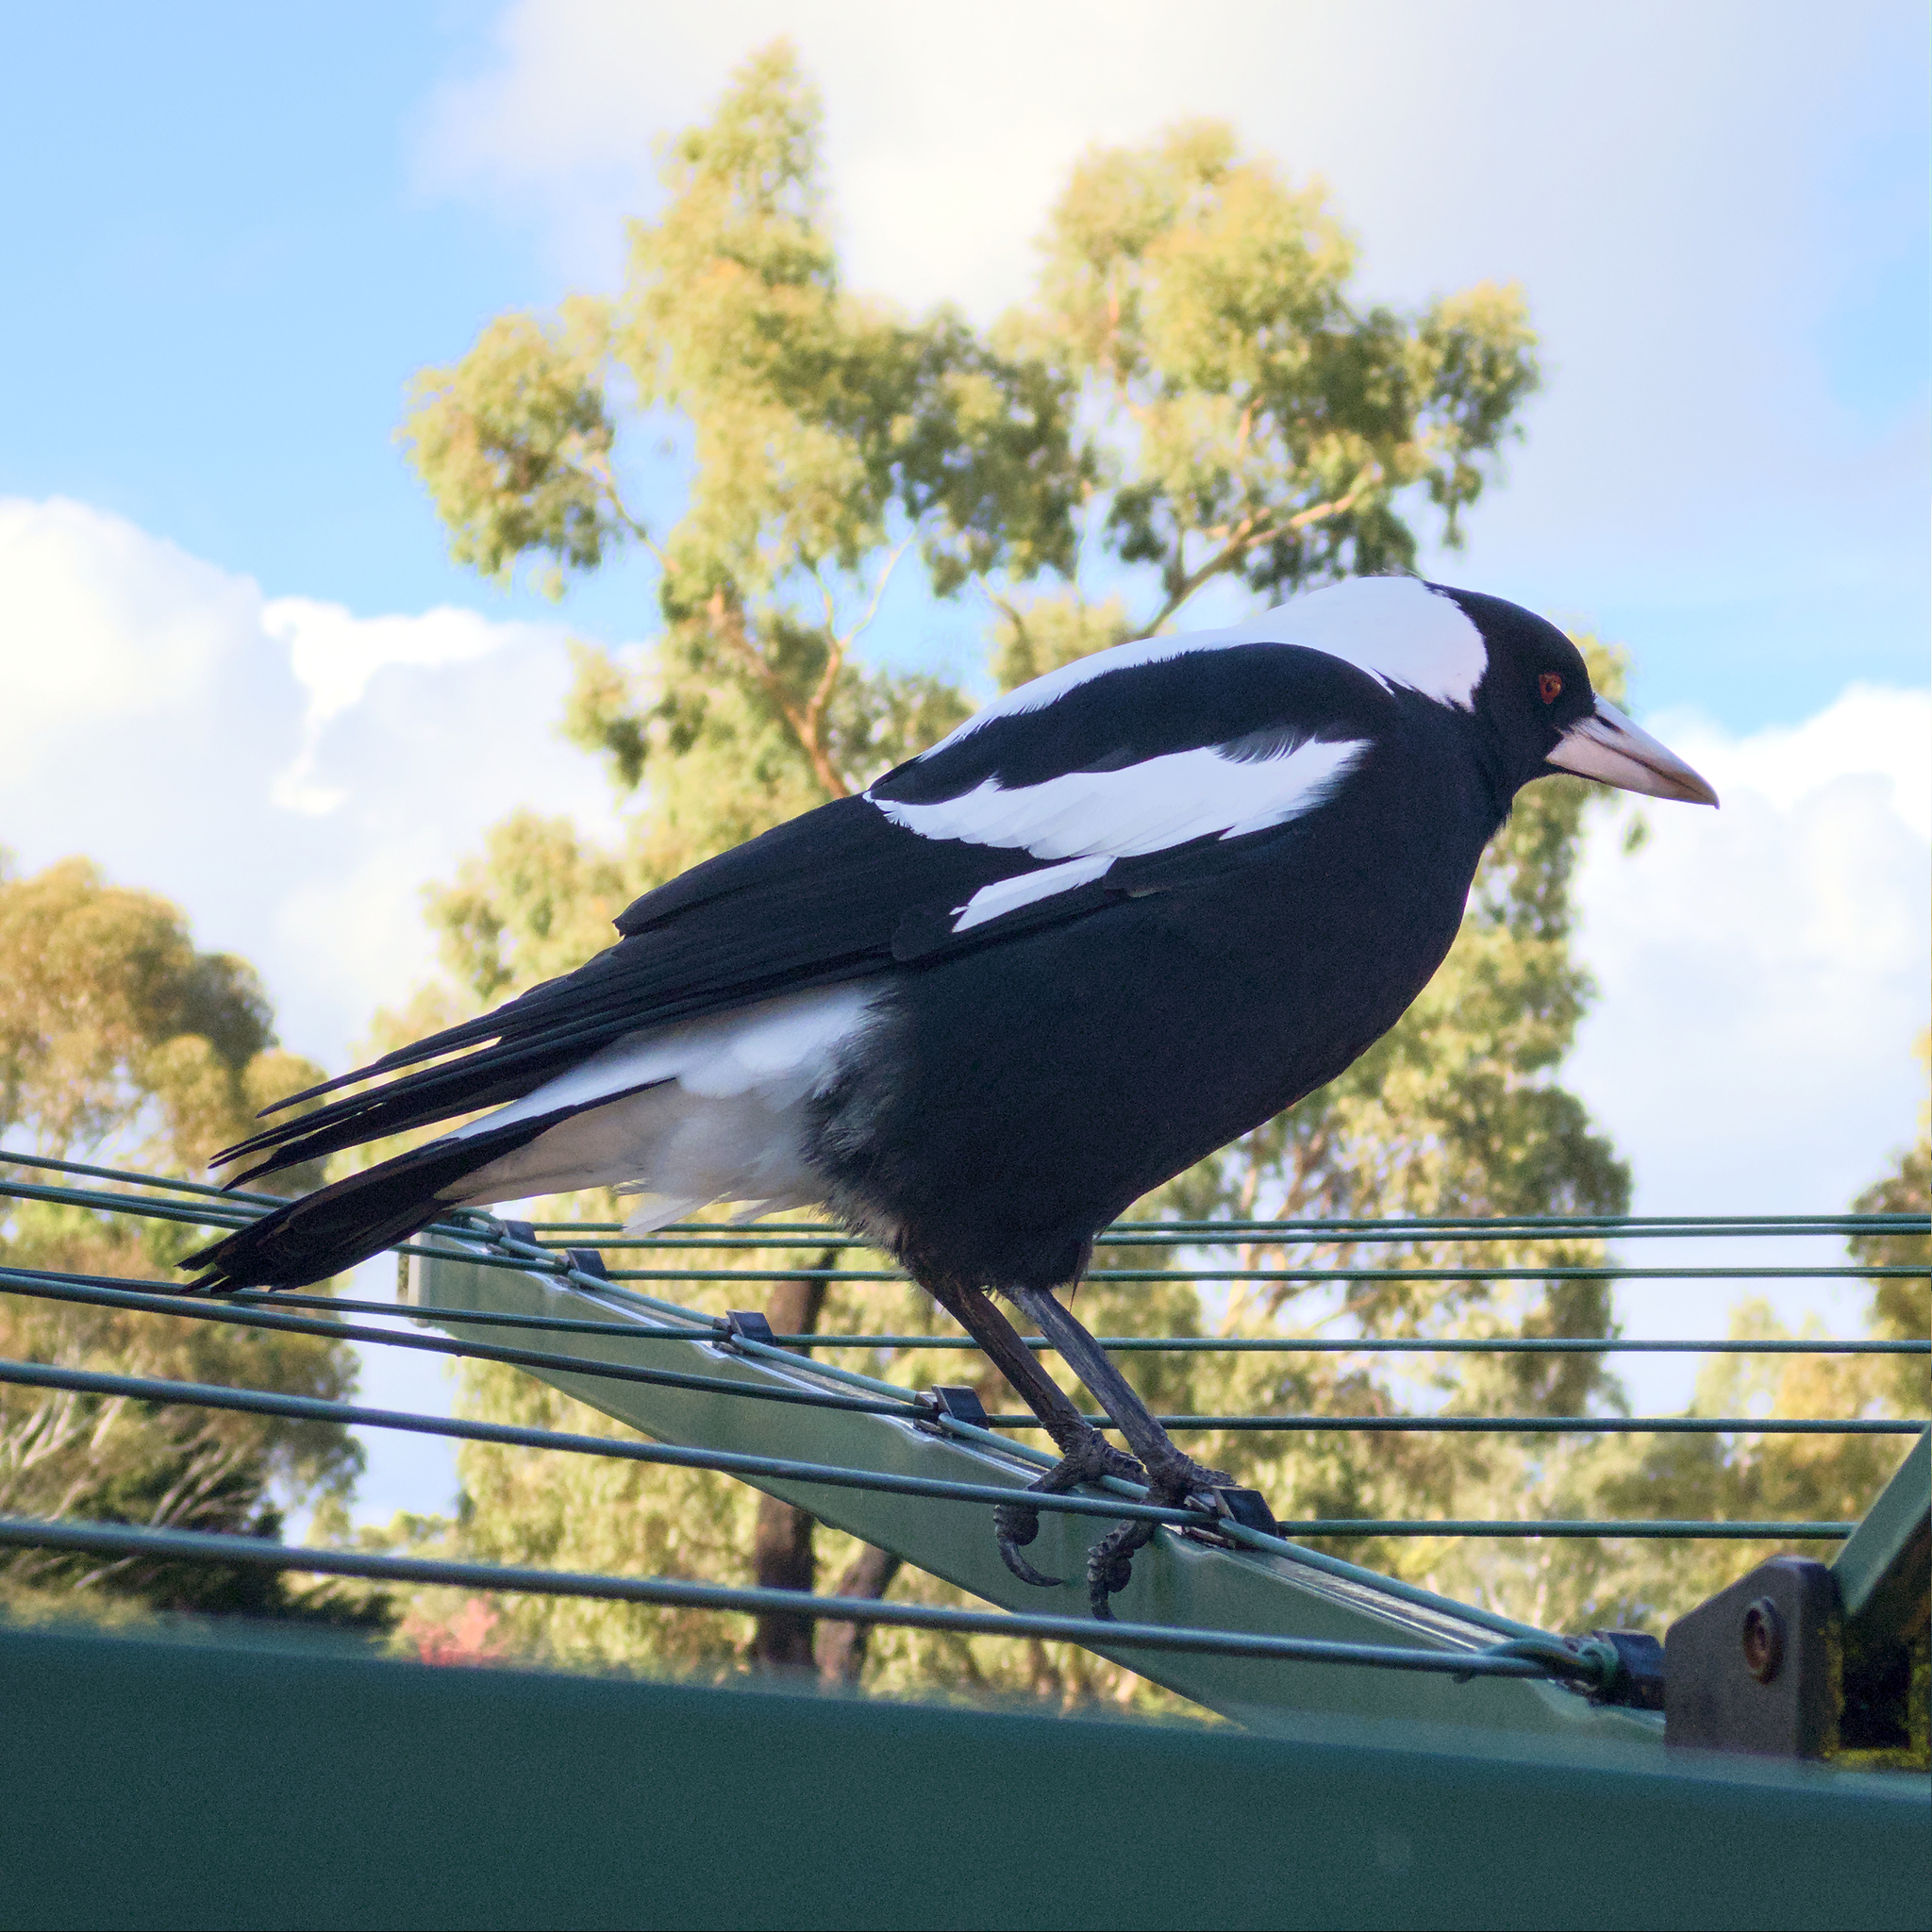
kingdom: Animalia
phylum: Chordata
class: Aves
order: Passeriformes
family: Cracticidae
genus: Gymnorhina
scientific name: Gymnorhina tibicen
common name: Australian magpie
